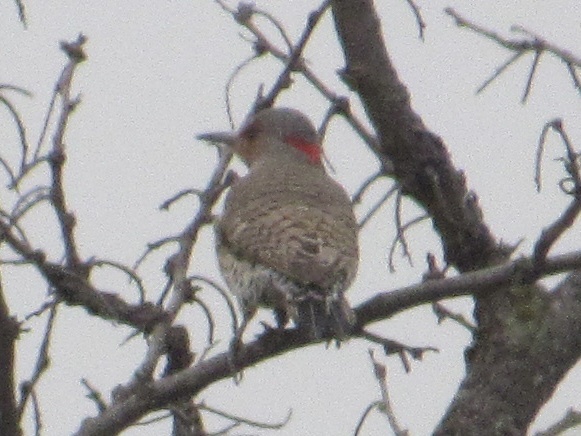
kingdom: Animalia
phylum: Chordata
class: Aves
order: Piciformes
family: Picidae
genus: Colaptes
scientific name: Colaptes auratus
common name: Northern flicker
